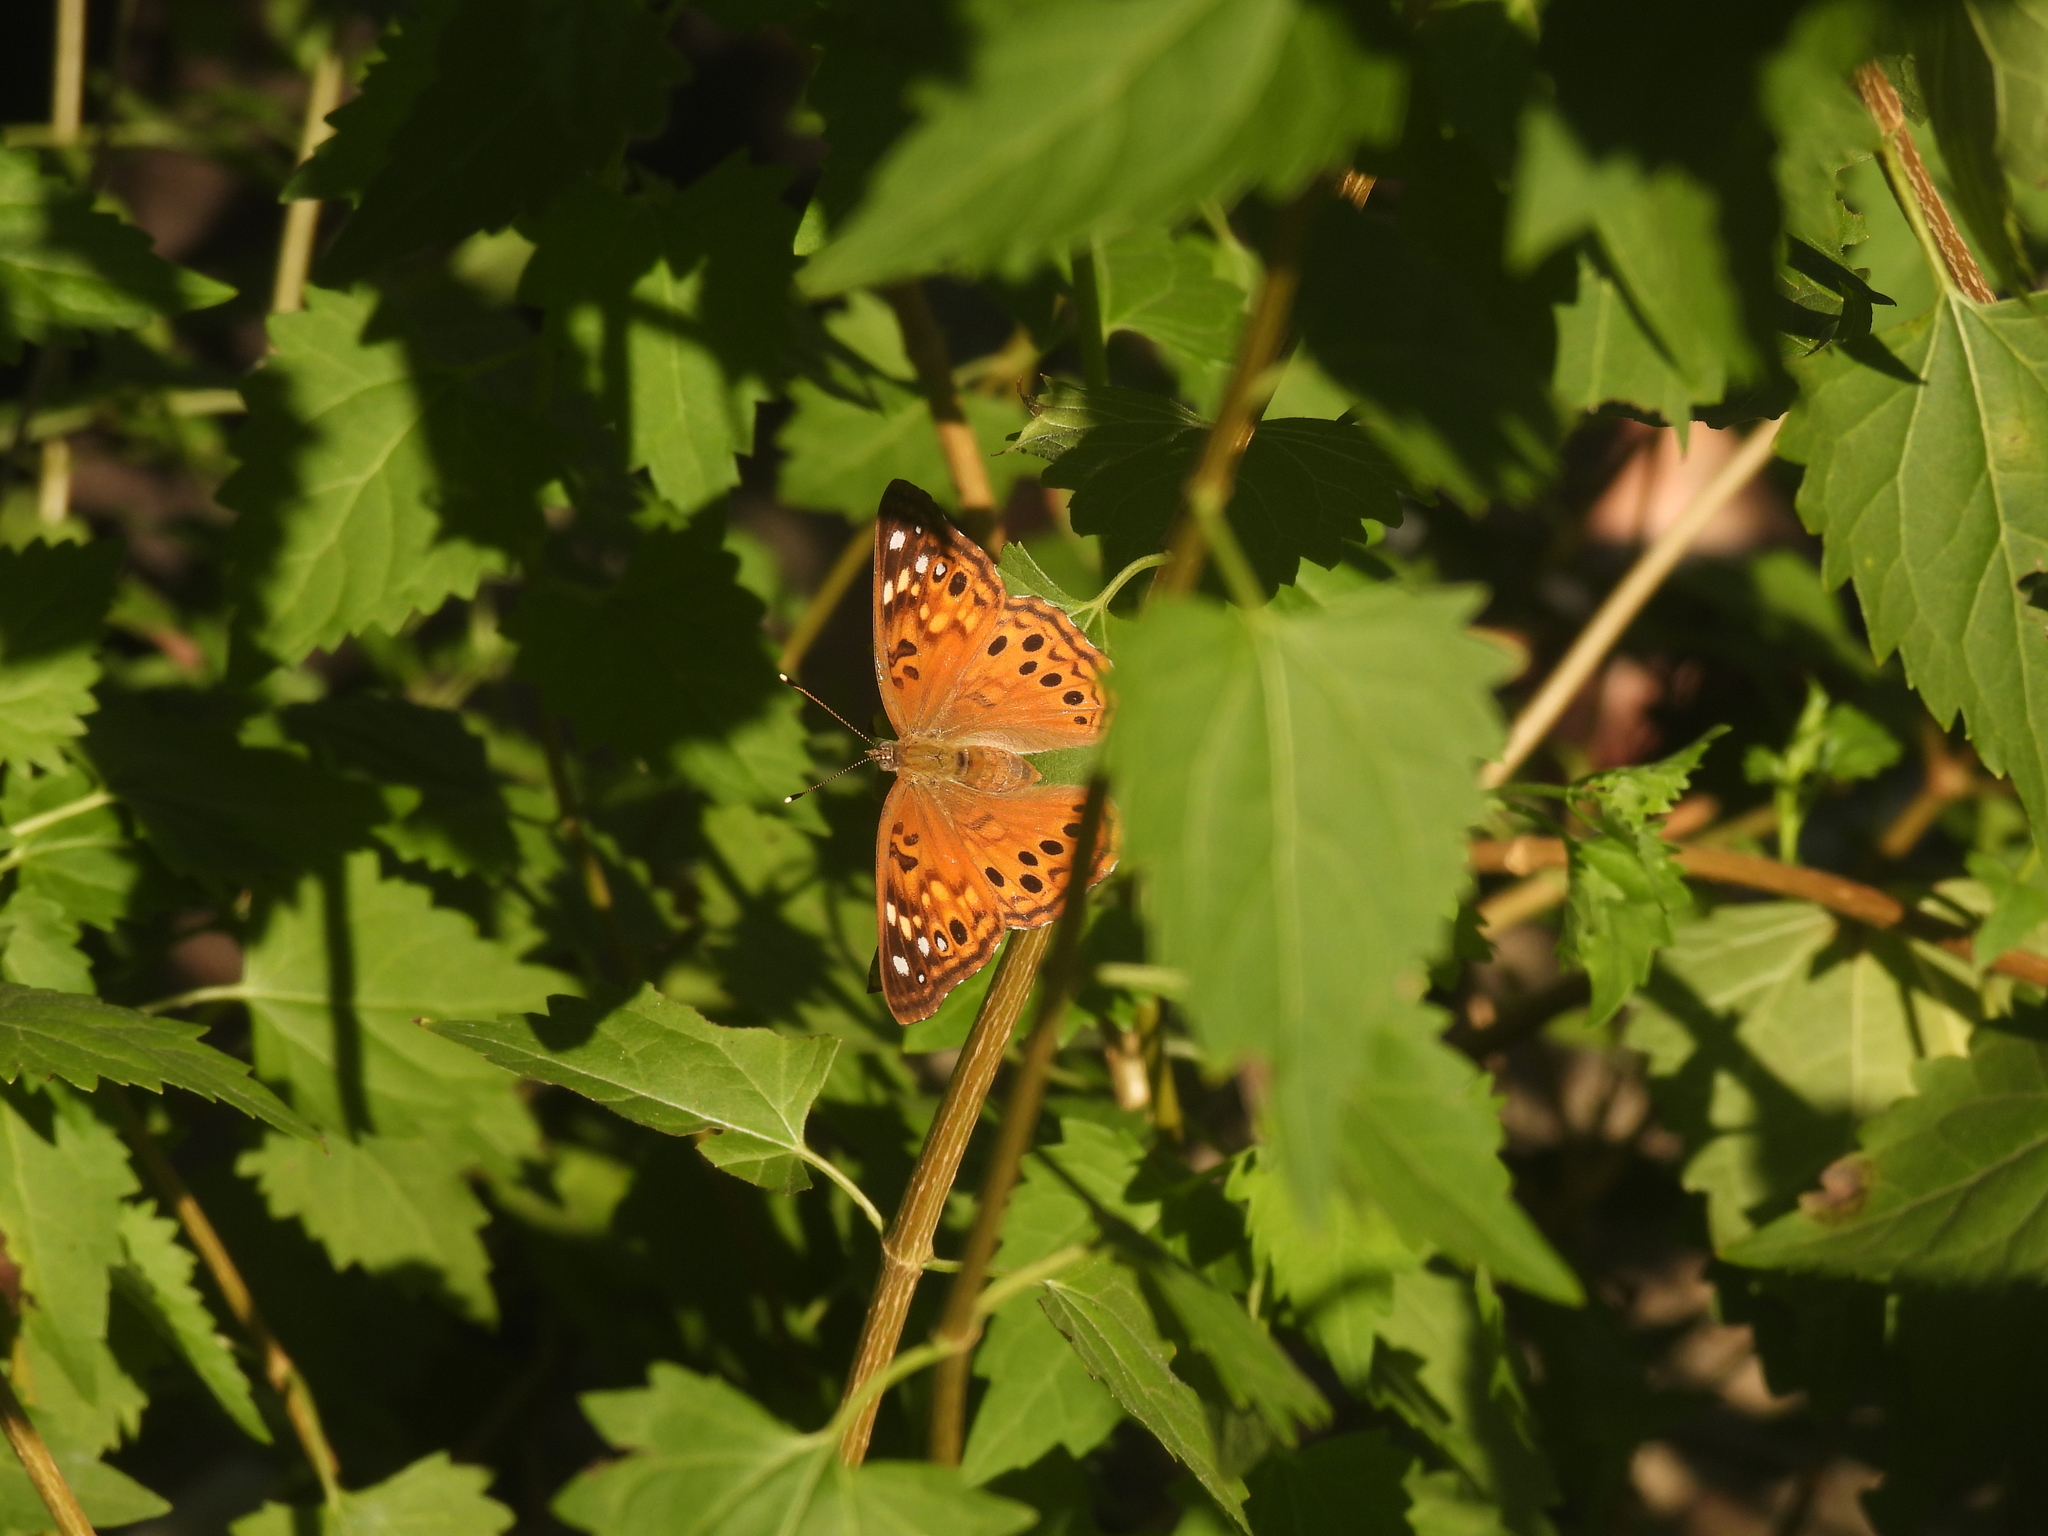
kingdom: Animalia
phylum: Arthropoda
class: Insecta
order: Lepidoptera
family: Nymphalidae
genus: Asterocampa
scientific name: Asterocampa celtis
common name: Hackberry emperor
